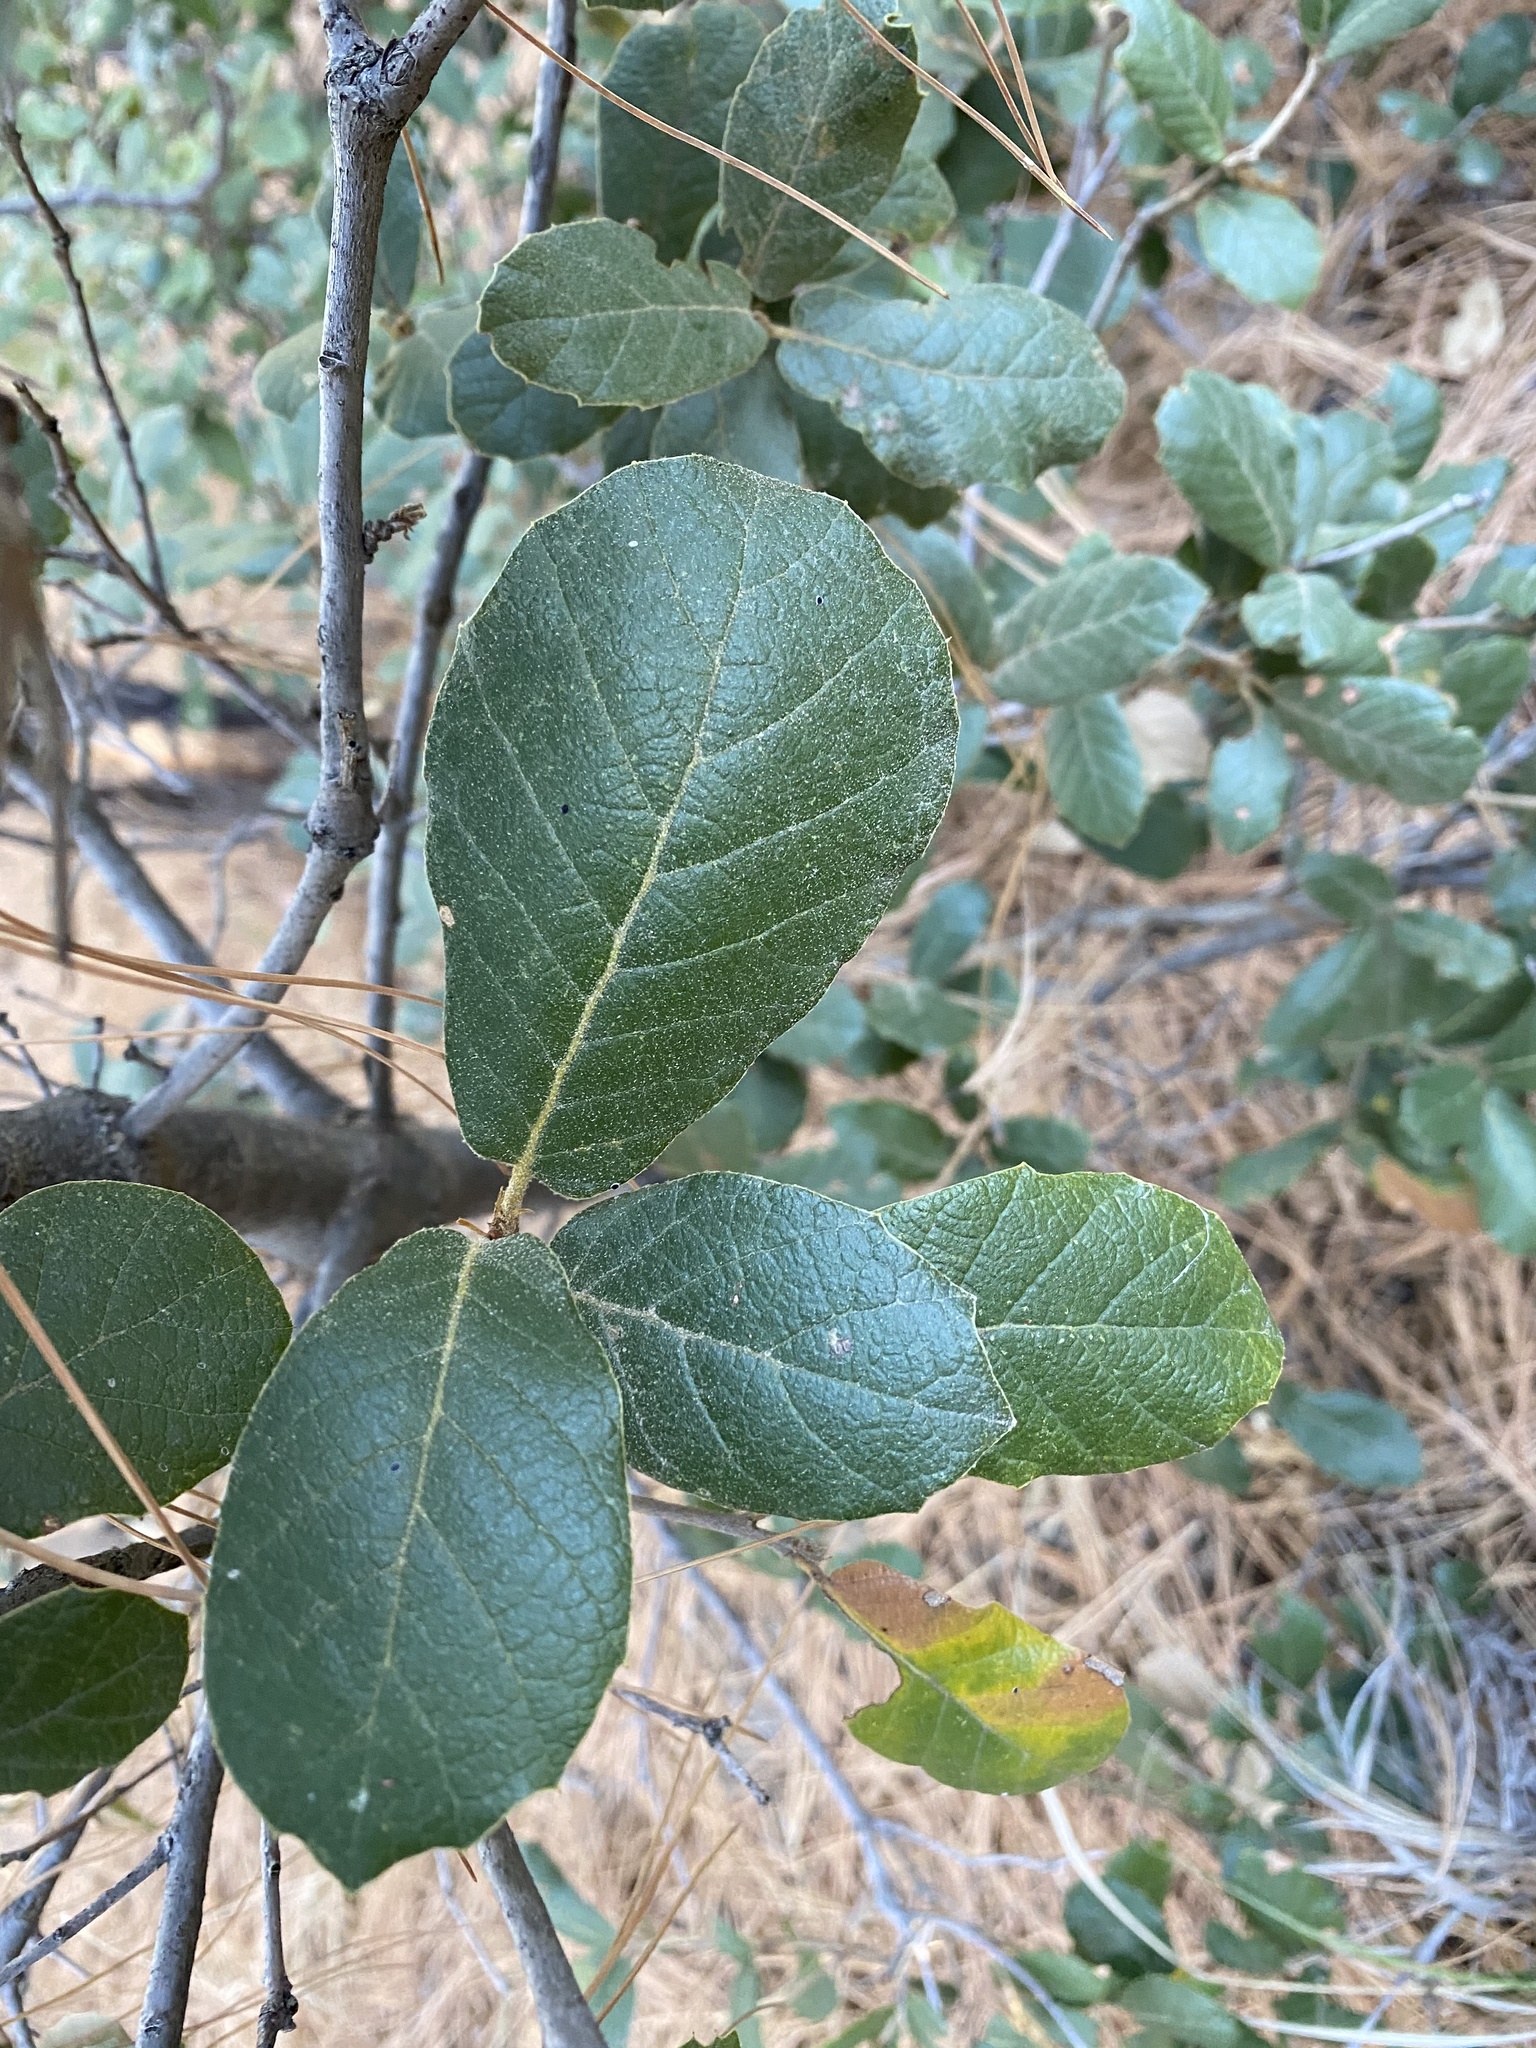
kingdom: Plantae
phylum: Tracheophyta
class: Magnoliopsida
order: Fagales
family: Fagaceae
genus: Quercus
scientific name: Quercus rugosa
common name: Netleaf oak
